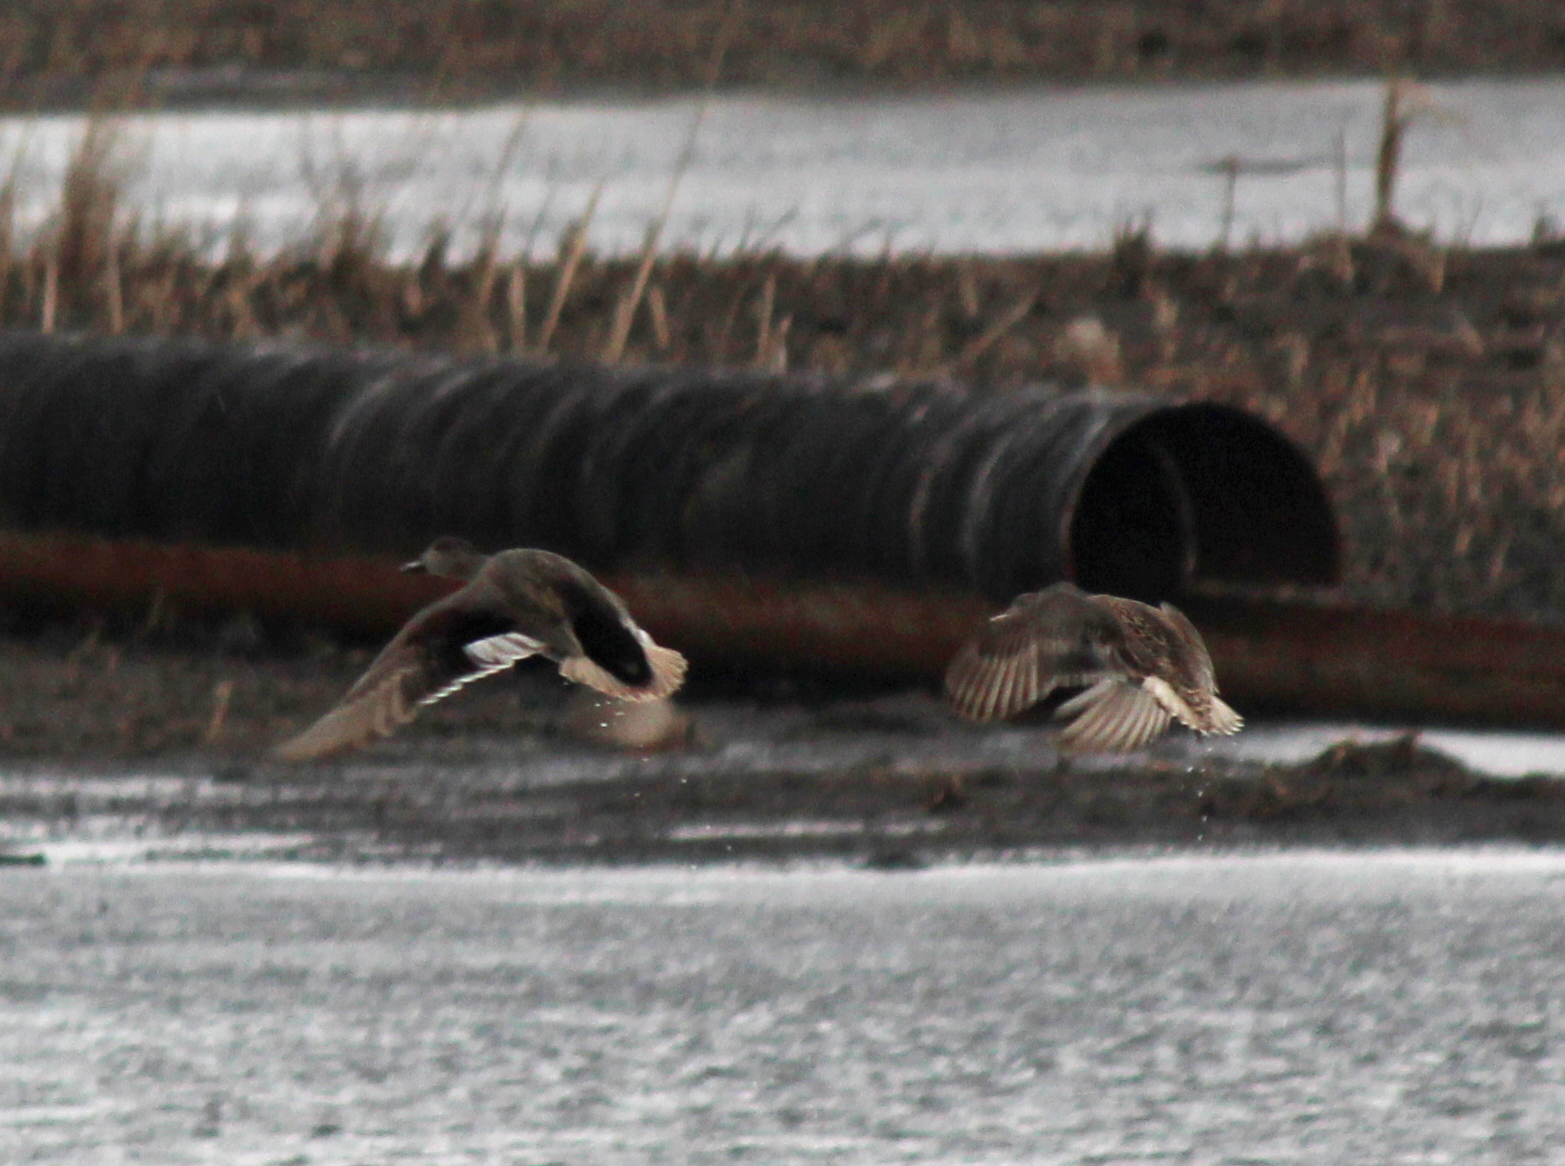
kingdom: Animalia
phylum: Chordata
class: Aves
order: Anseriformes
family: Anatidae
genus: Mareca
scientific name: Mareca strepera
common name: Gadwall
